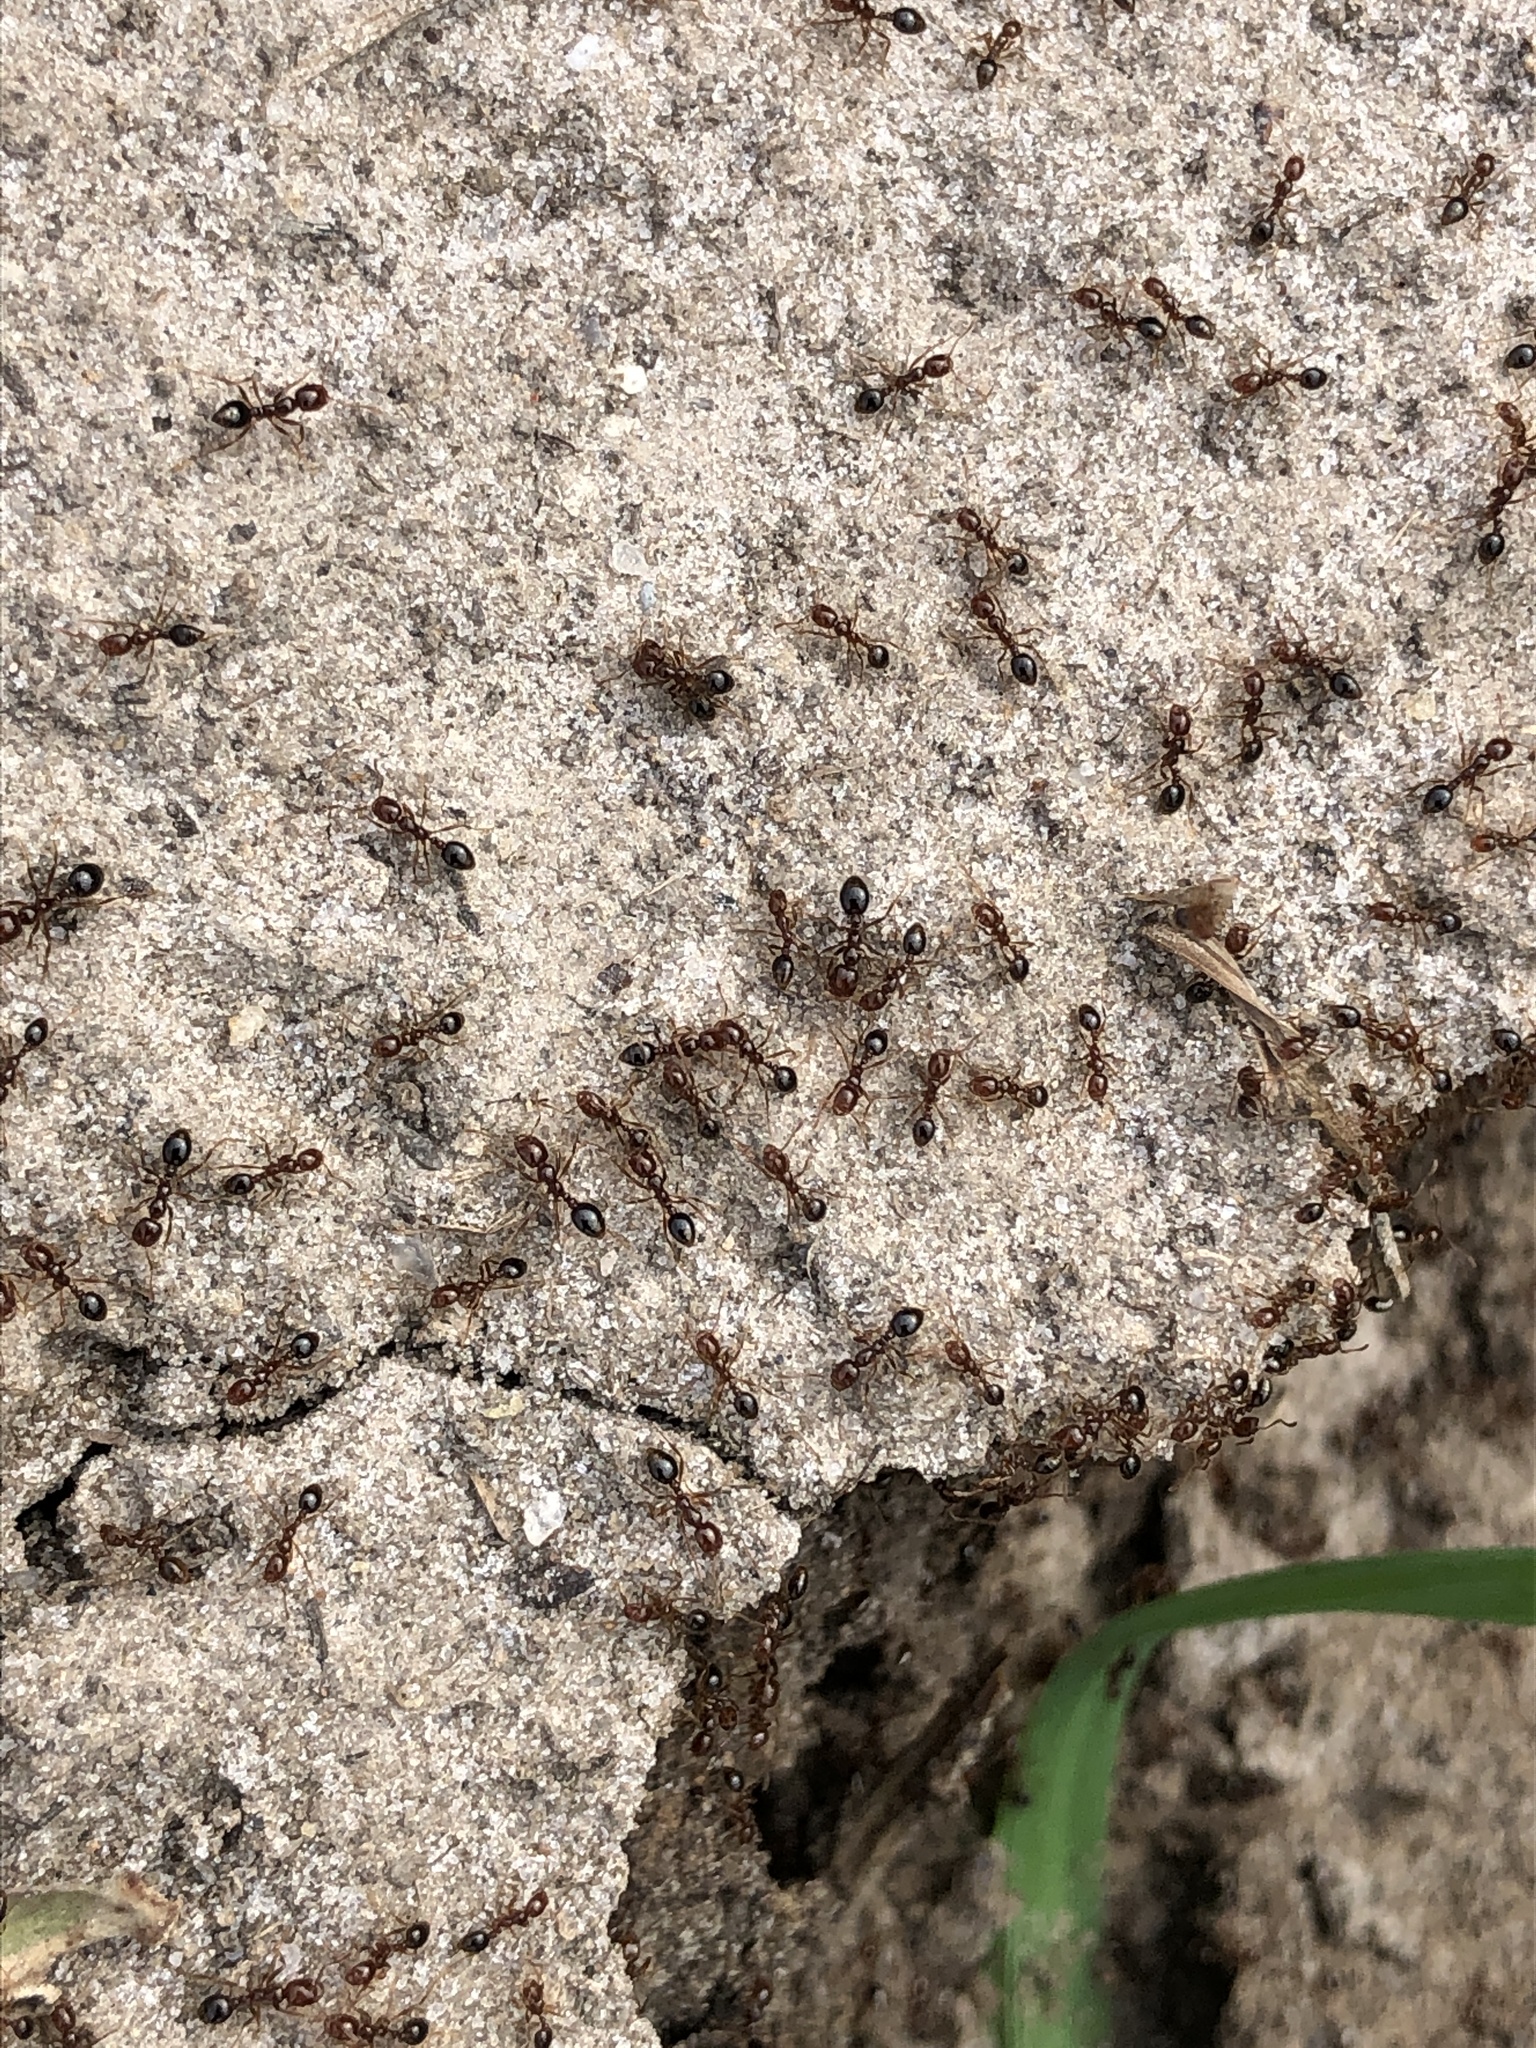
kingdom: Animalia
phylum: Arthropoda
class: Insecta
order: Hymenoptera
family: Formicidae
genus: Solenopsis
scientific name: Solenopsis invicta
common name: Red imported fire ant
